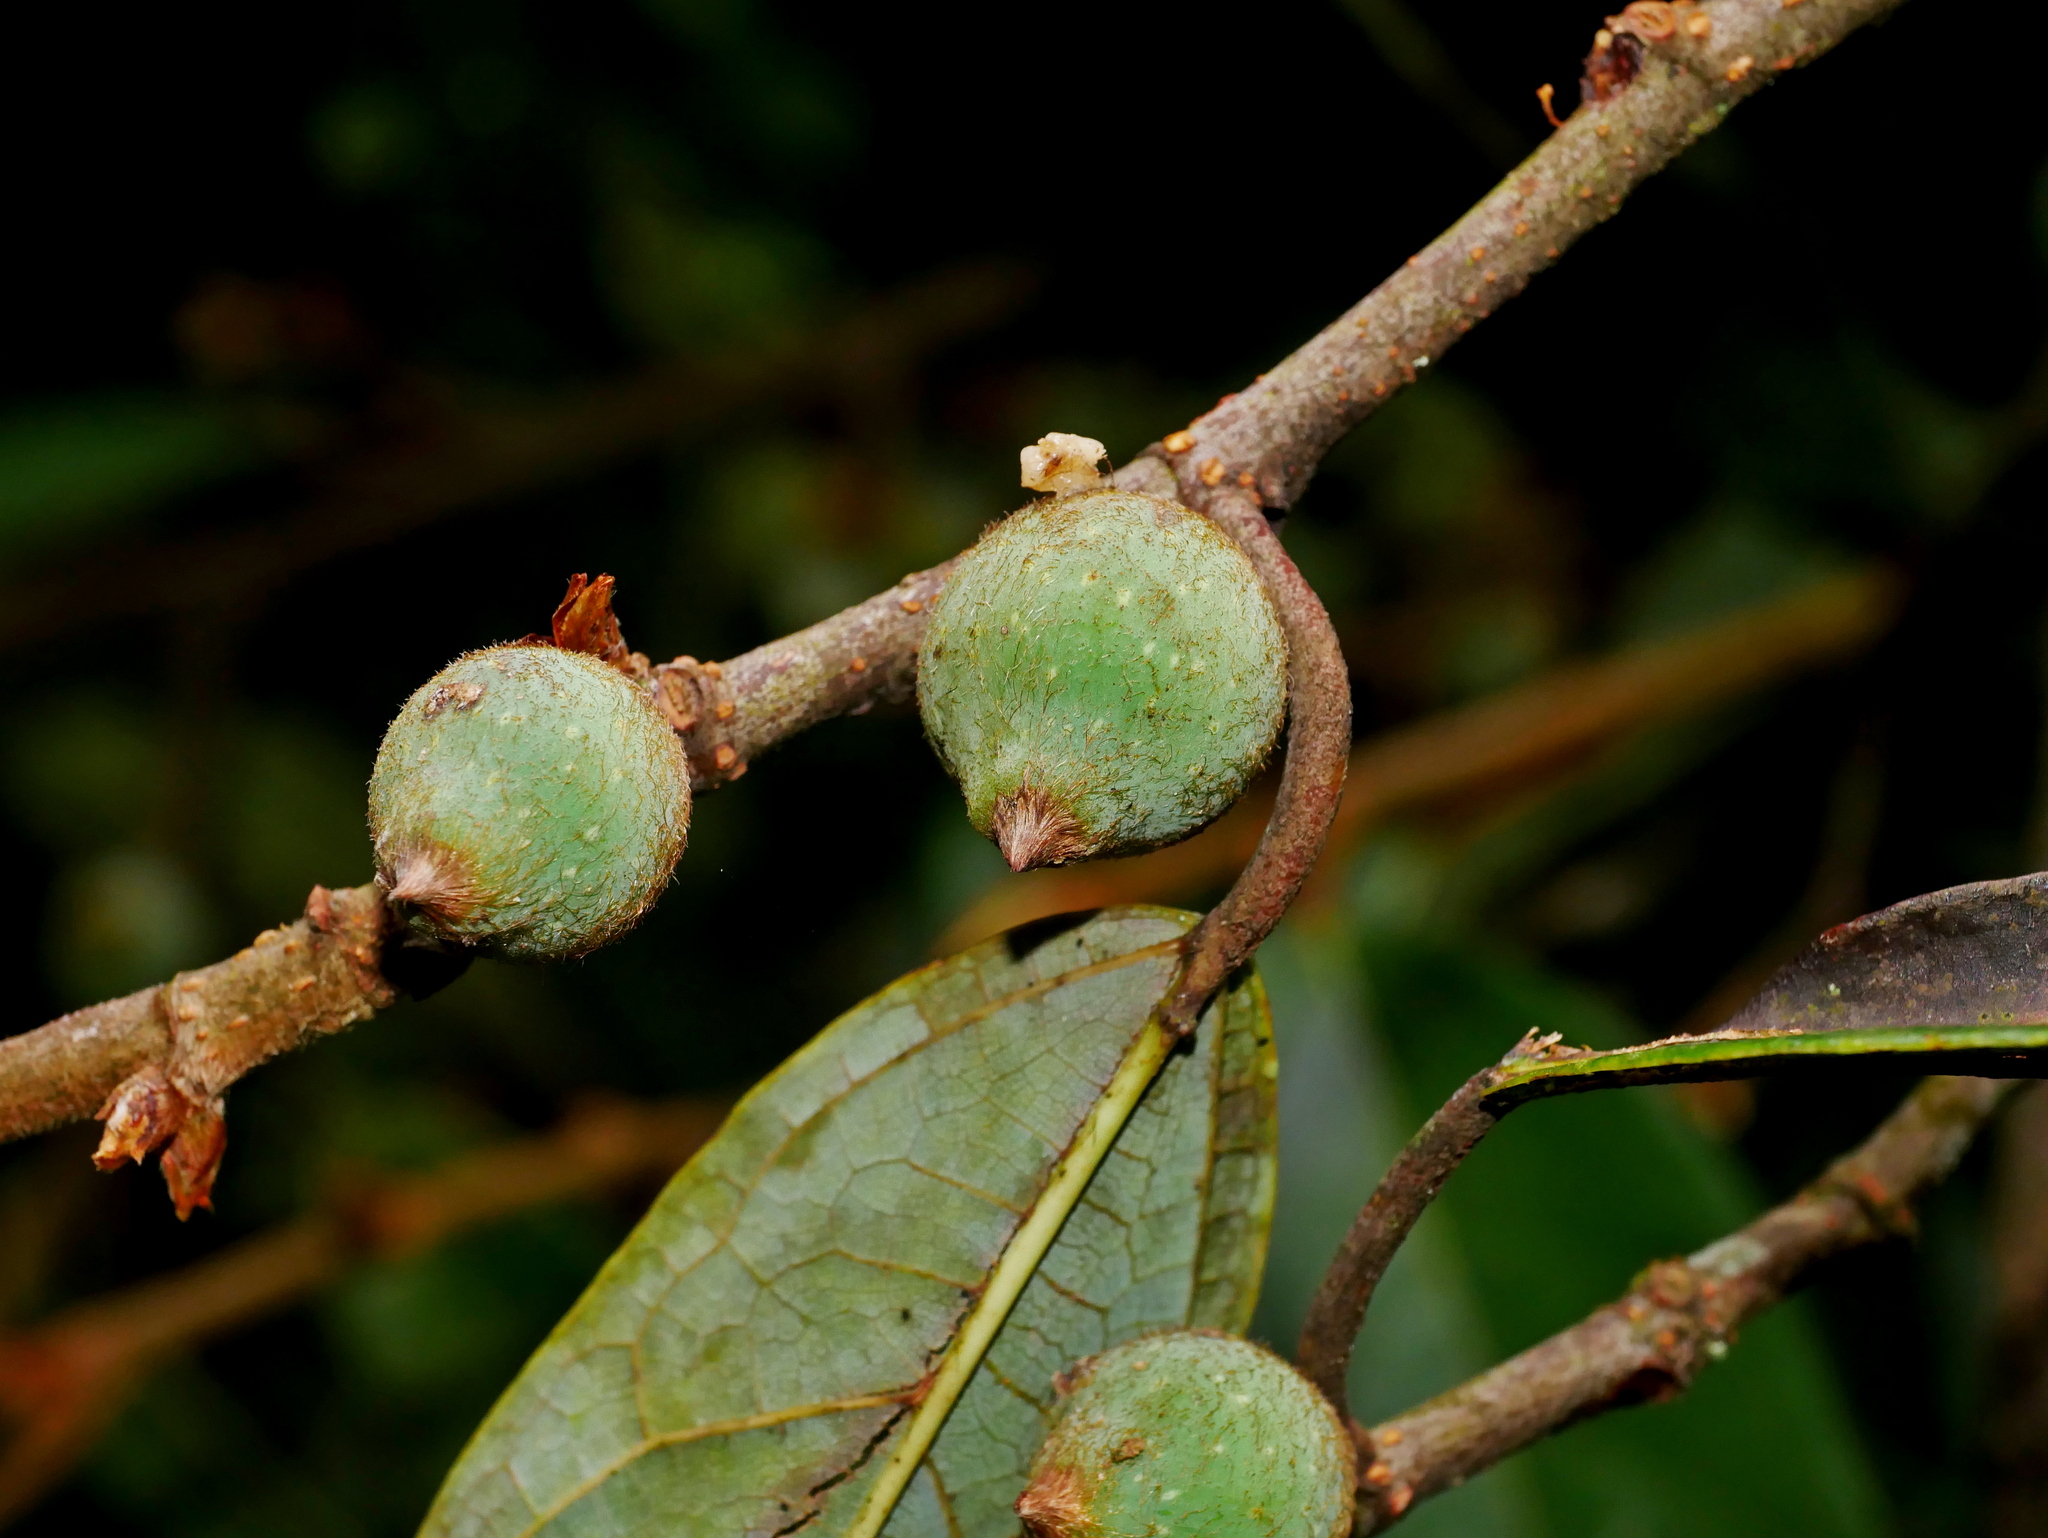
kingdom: Plantae
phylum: Tracheophyta
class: Magnoliopsida
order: Rosales
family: Moraceae
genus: Ficus
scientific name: Ficus sarmentosa
